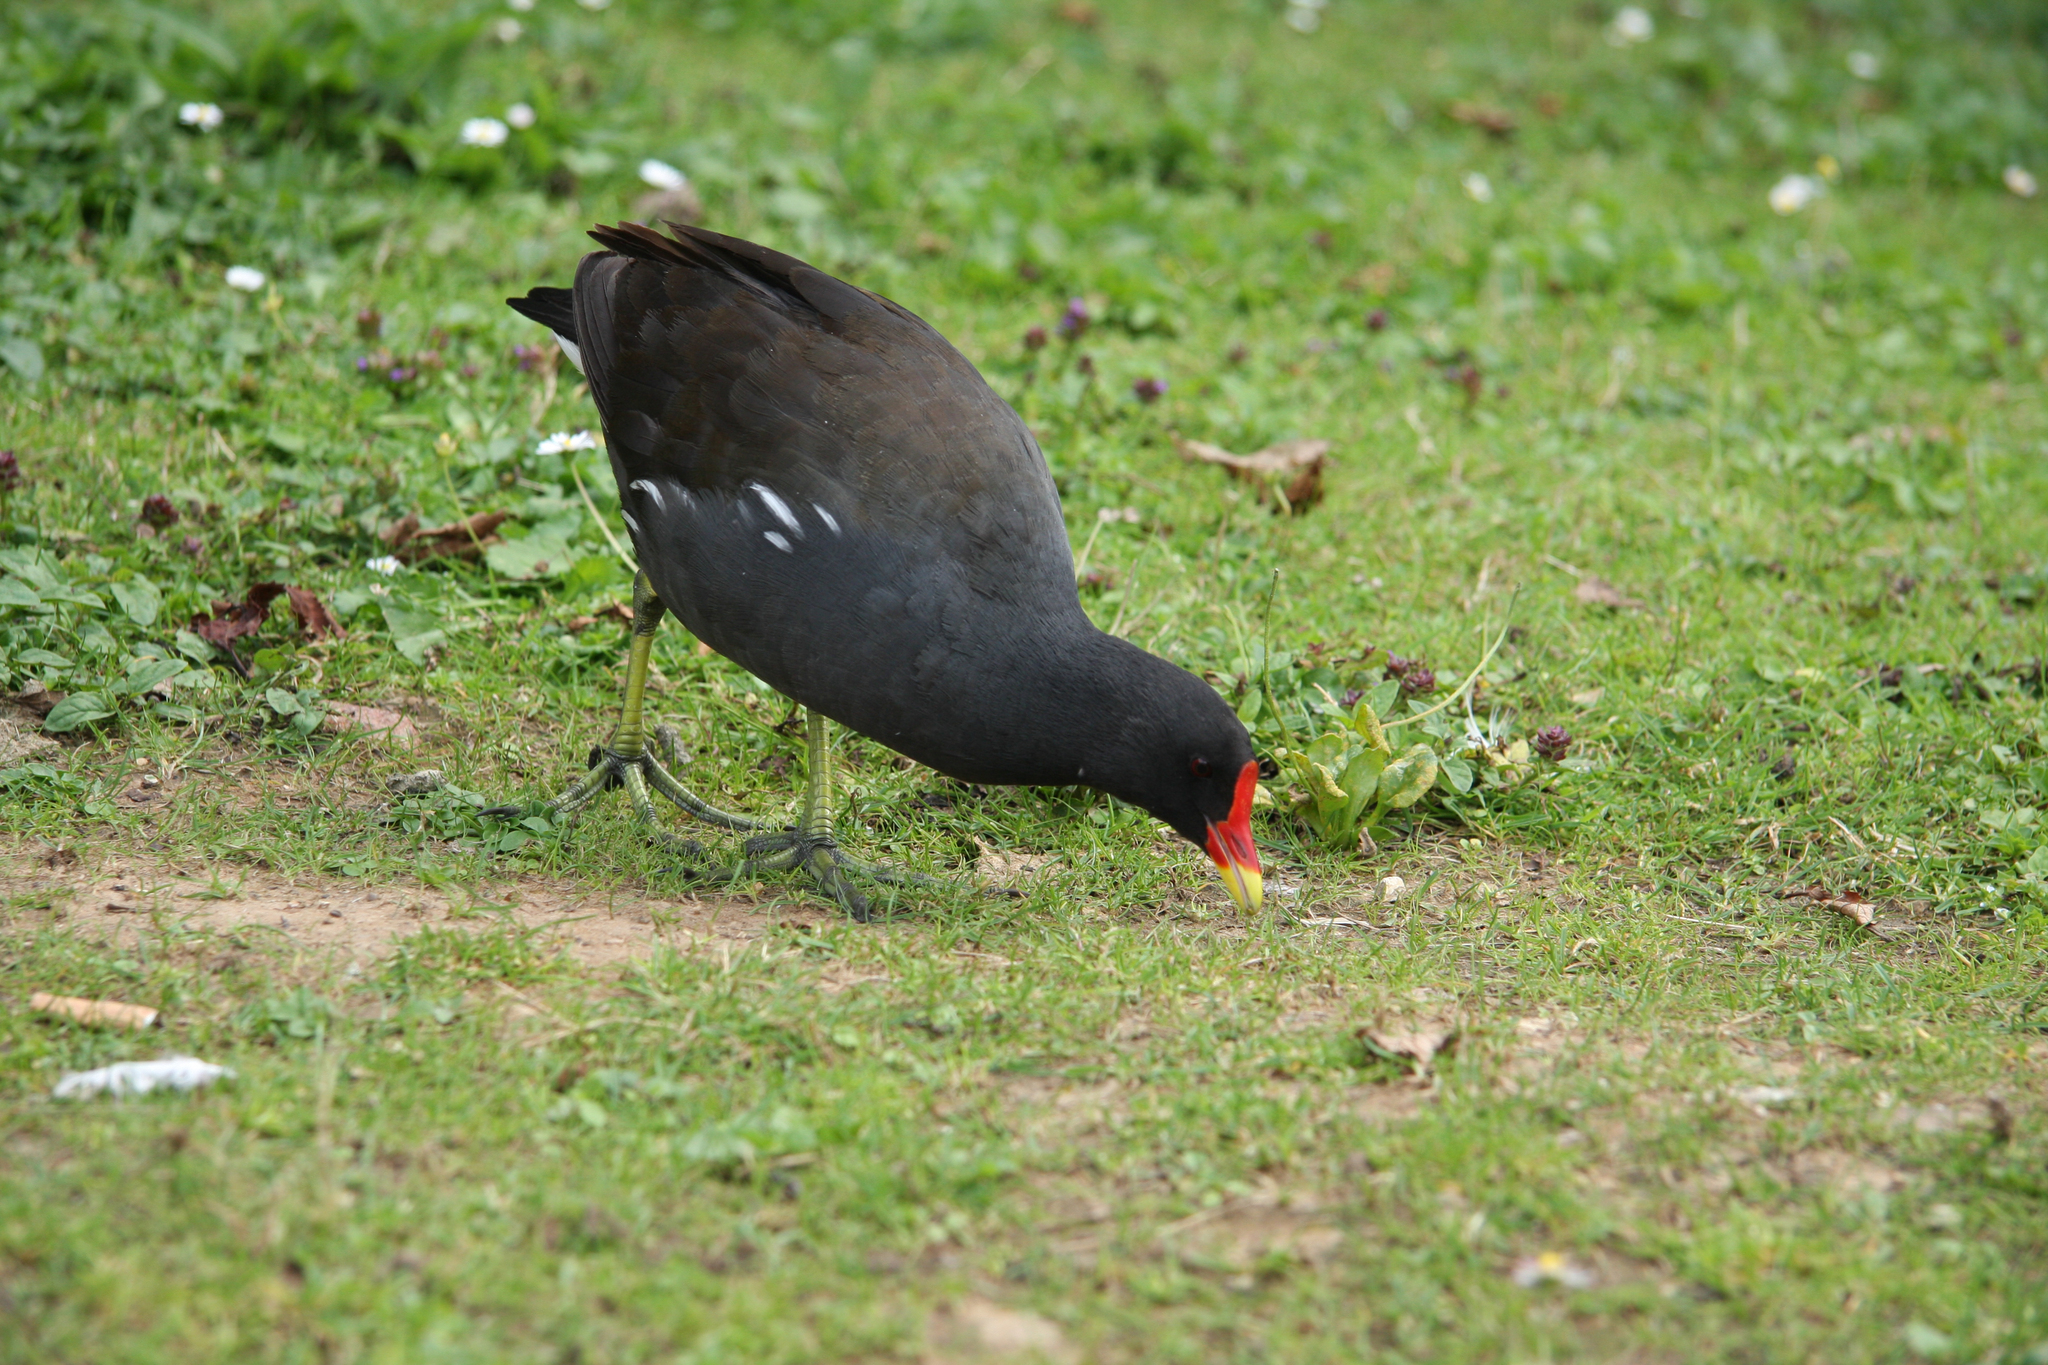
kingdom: Animalia
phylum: Chordata
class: Aves
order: Gruiformes
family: Rallidae
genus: Gallinula
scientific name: Gallinula chloropus
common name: Common moorhen
